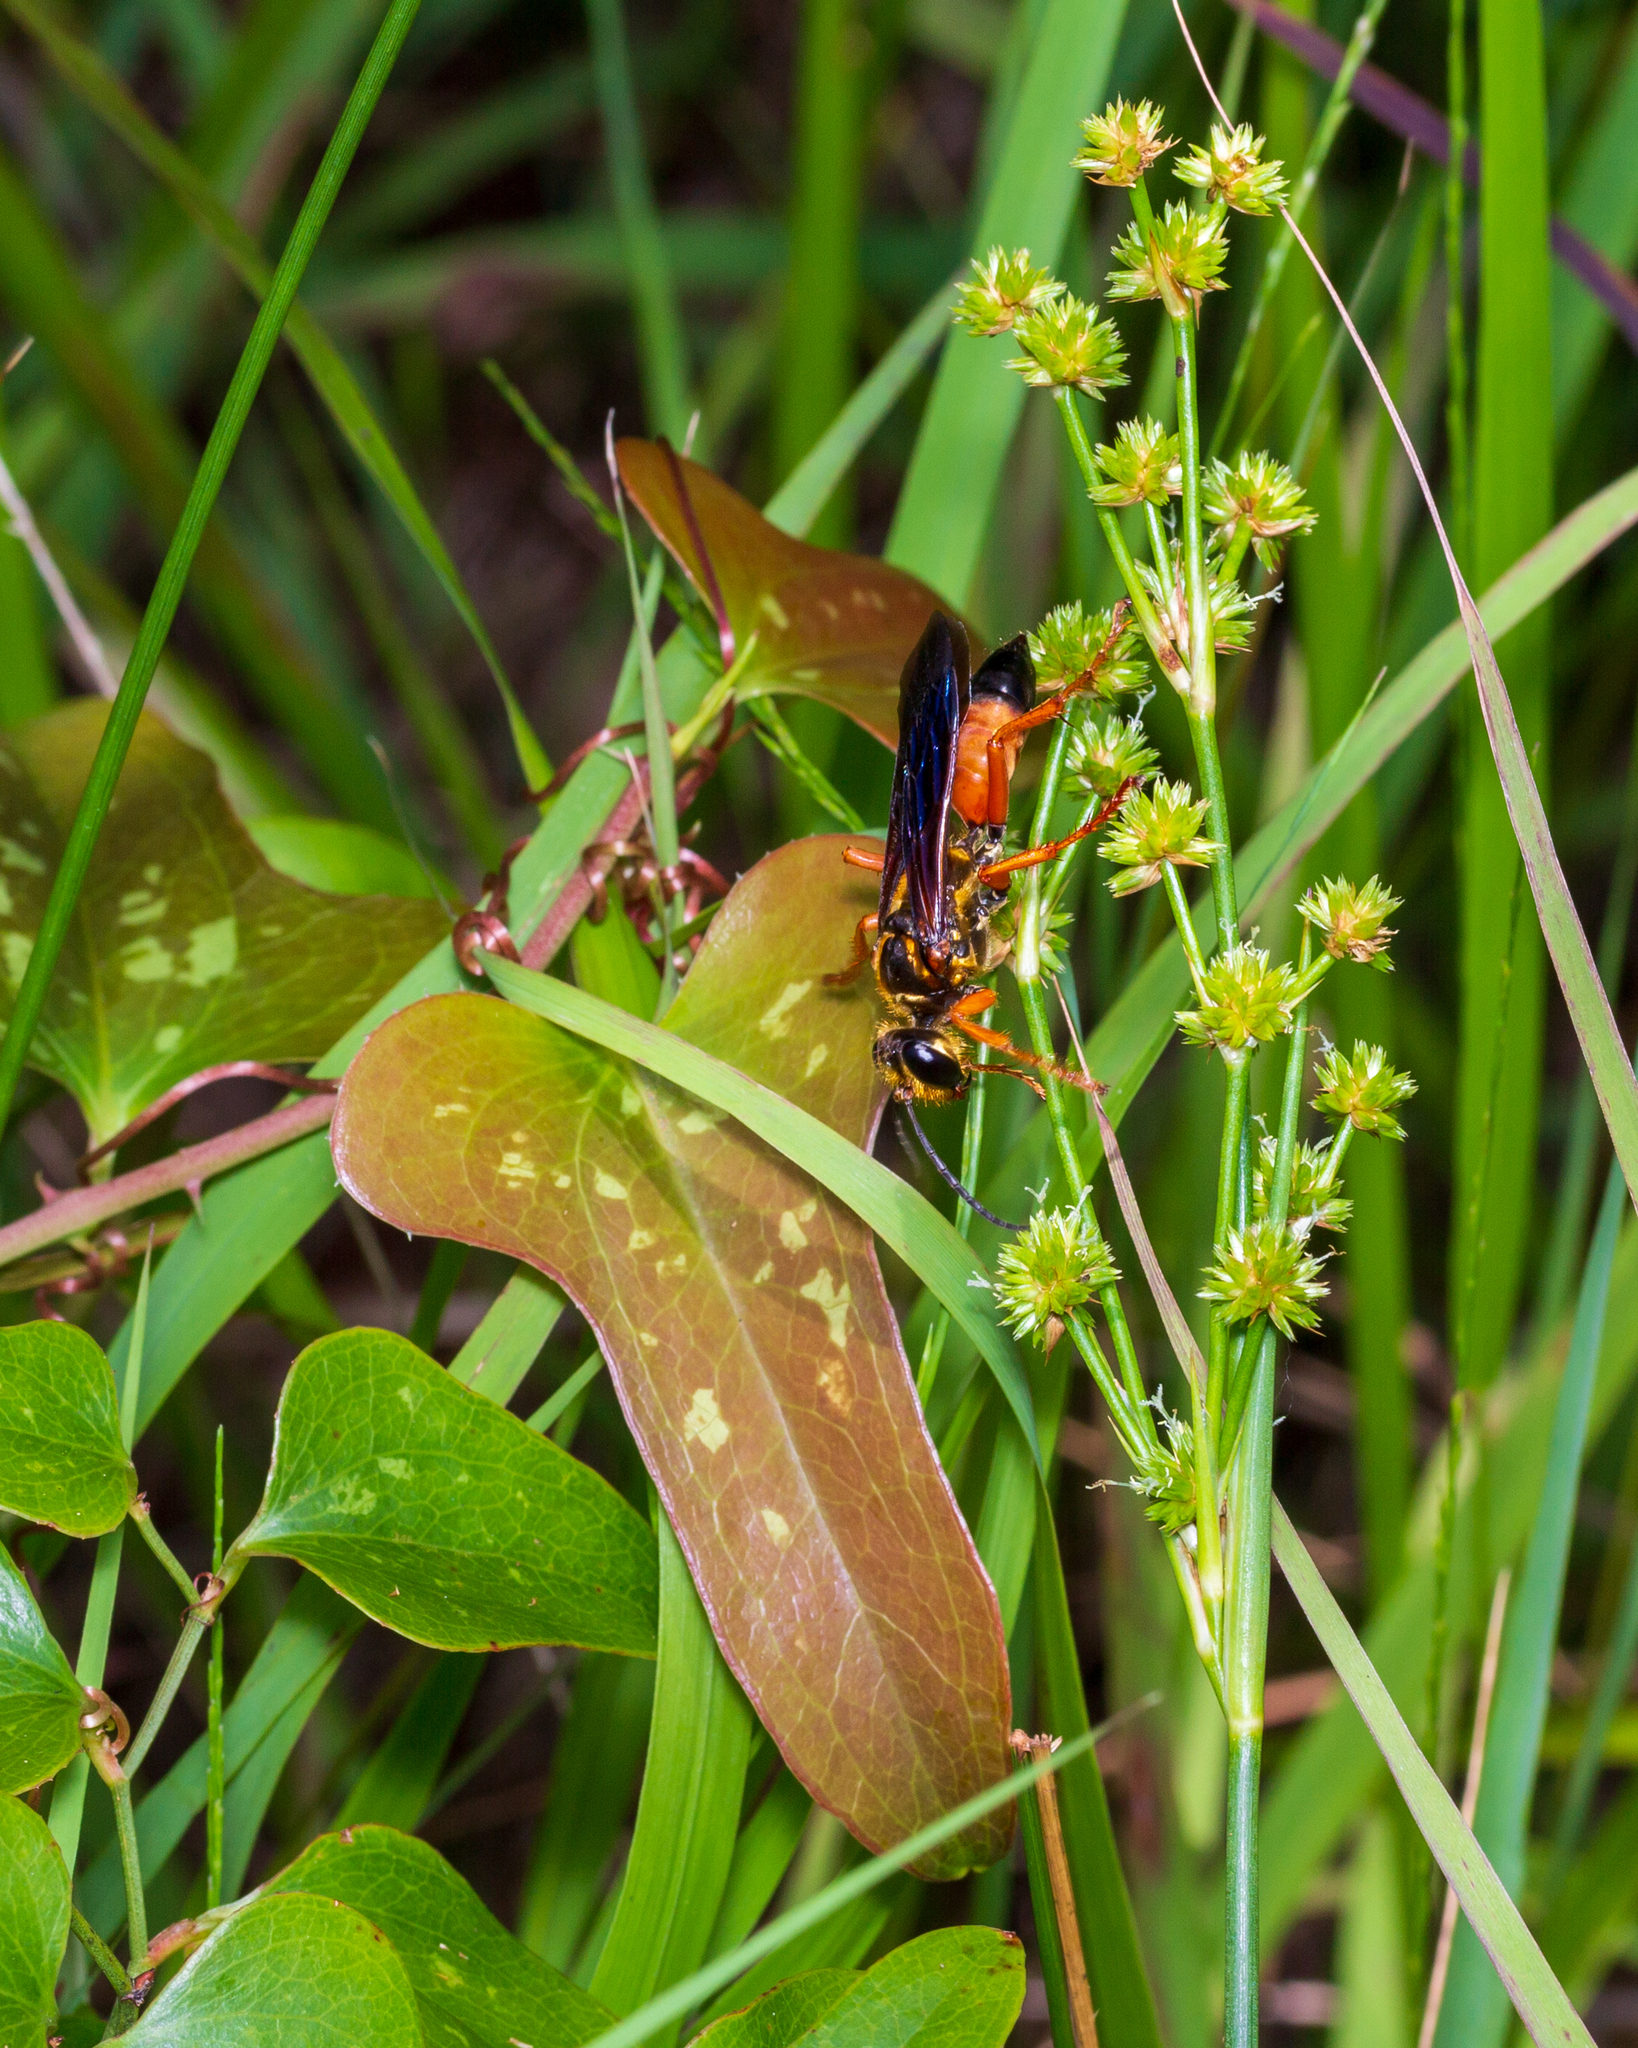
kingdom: Animalia
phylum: Arthropoda
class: Insecta
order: Hymenoptera
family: Sphecidae
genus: Sphex
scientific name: Sphex ichneumoneus
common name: Great golden digger wasp
